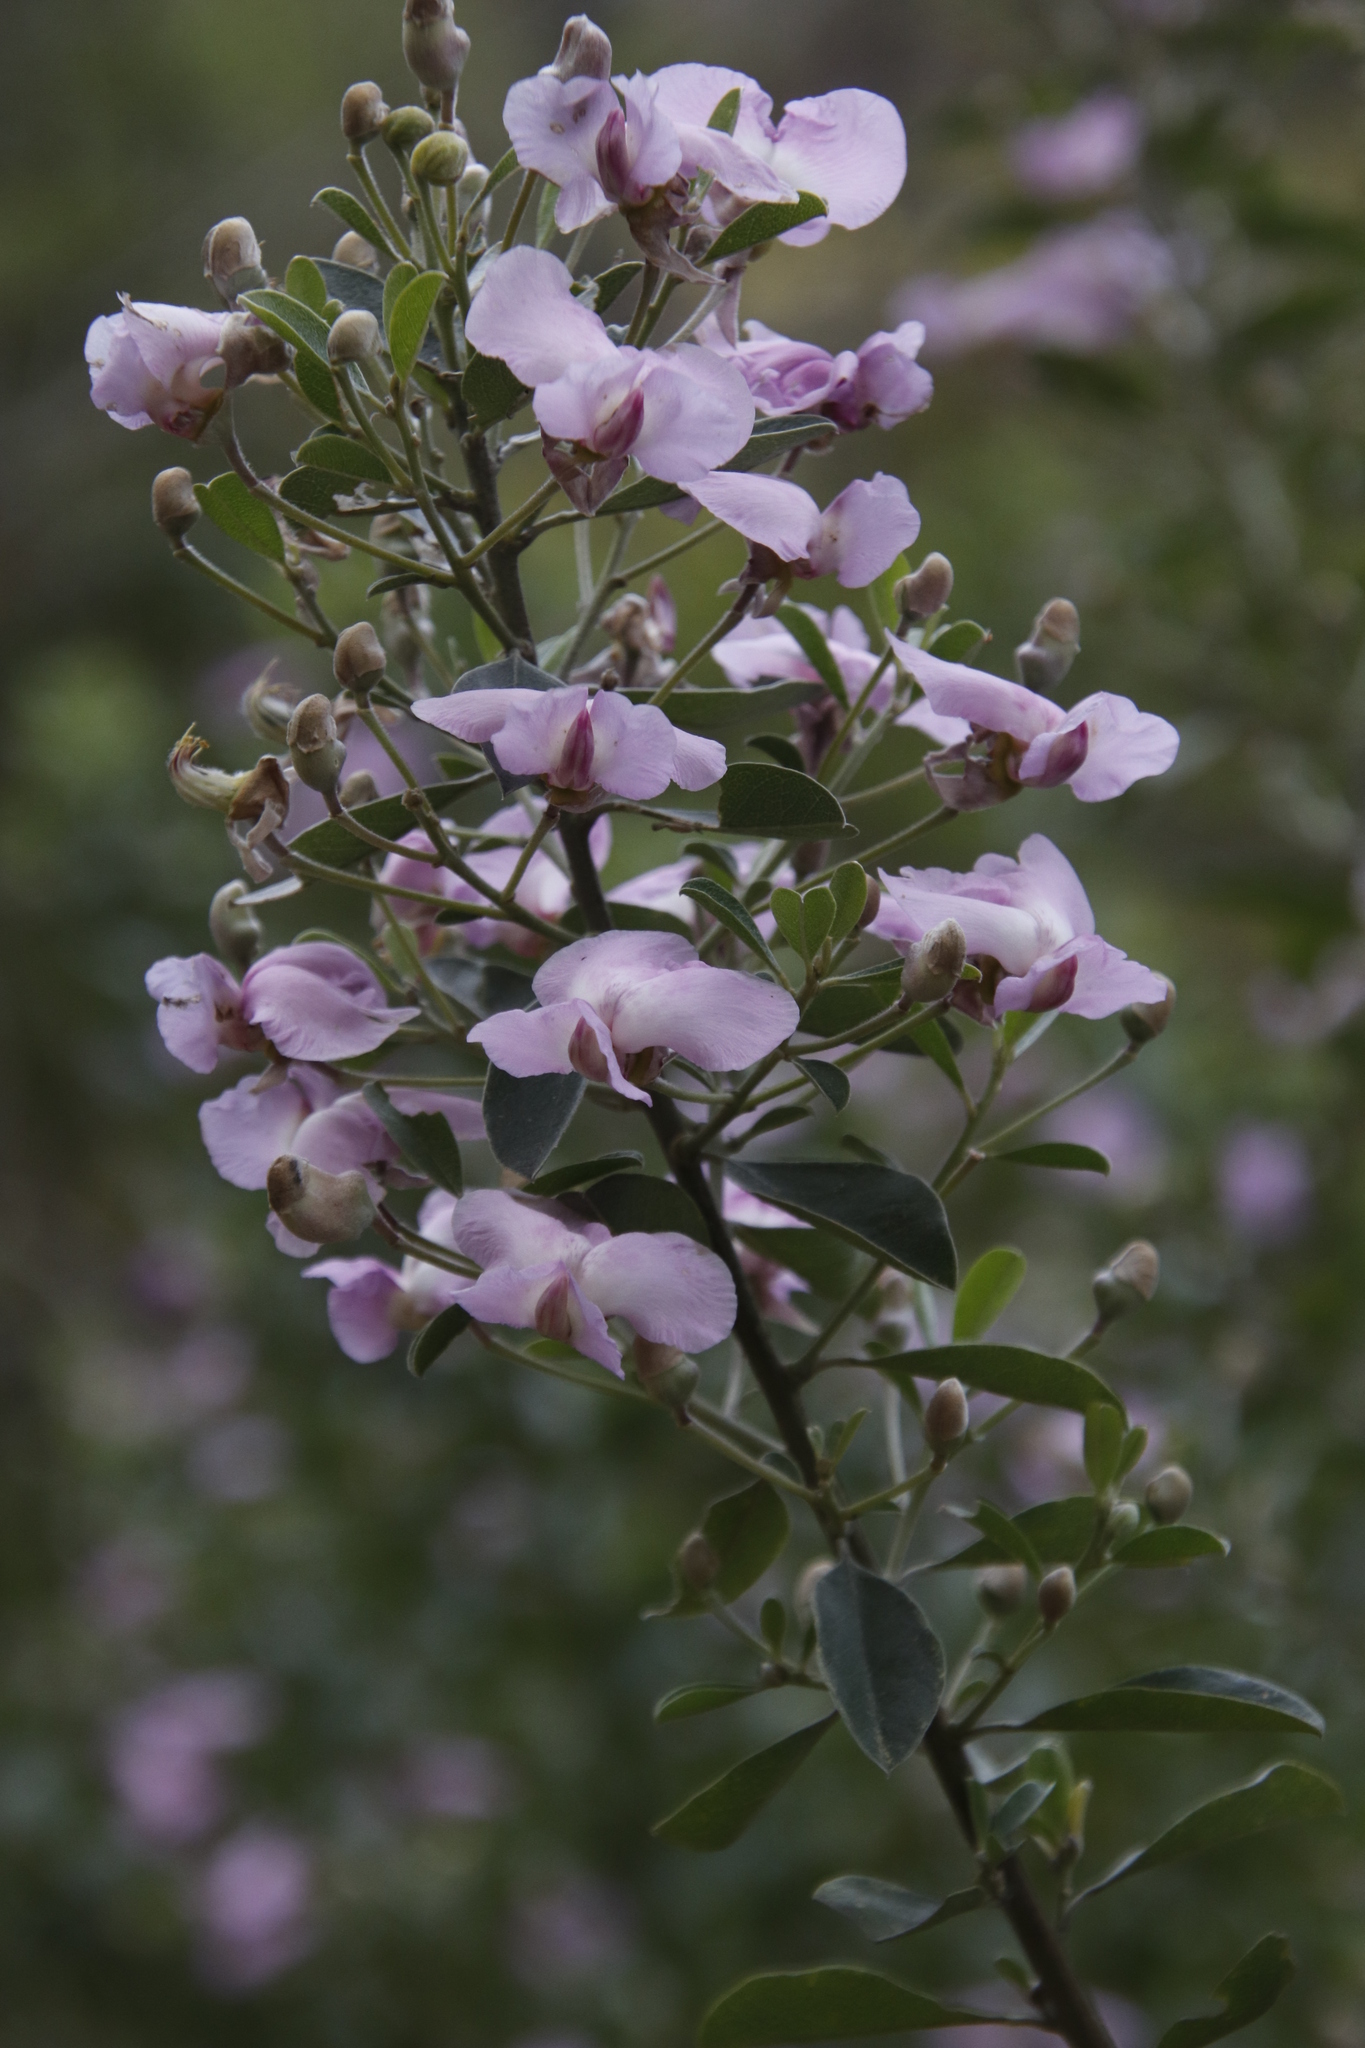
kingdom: Plantae
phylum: Tracheophyta
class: Magnoliopsida
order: Fabales
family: Fabaceae
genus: Podalyria
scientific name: Podalyria calyptrata
